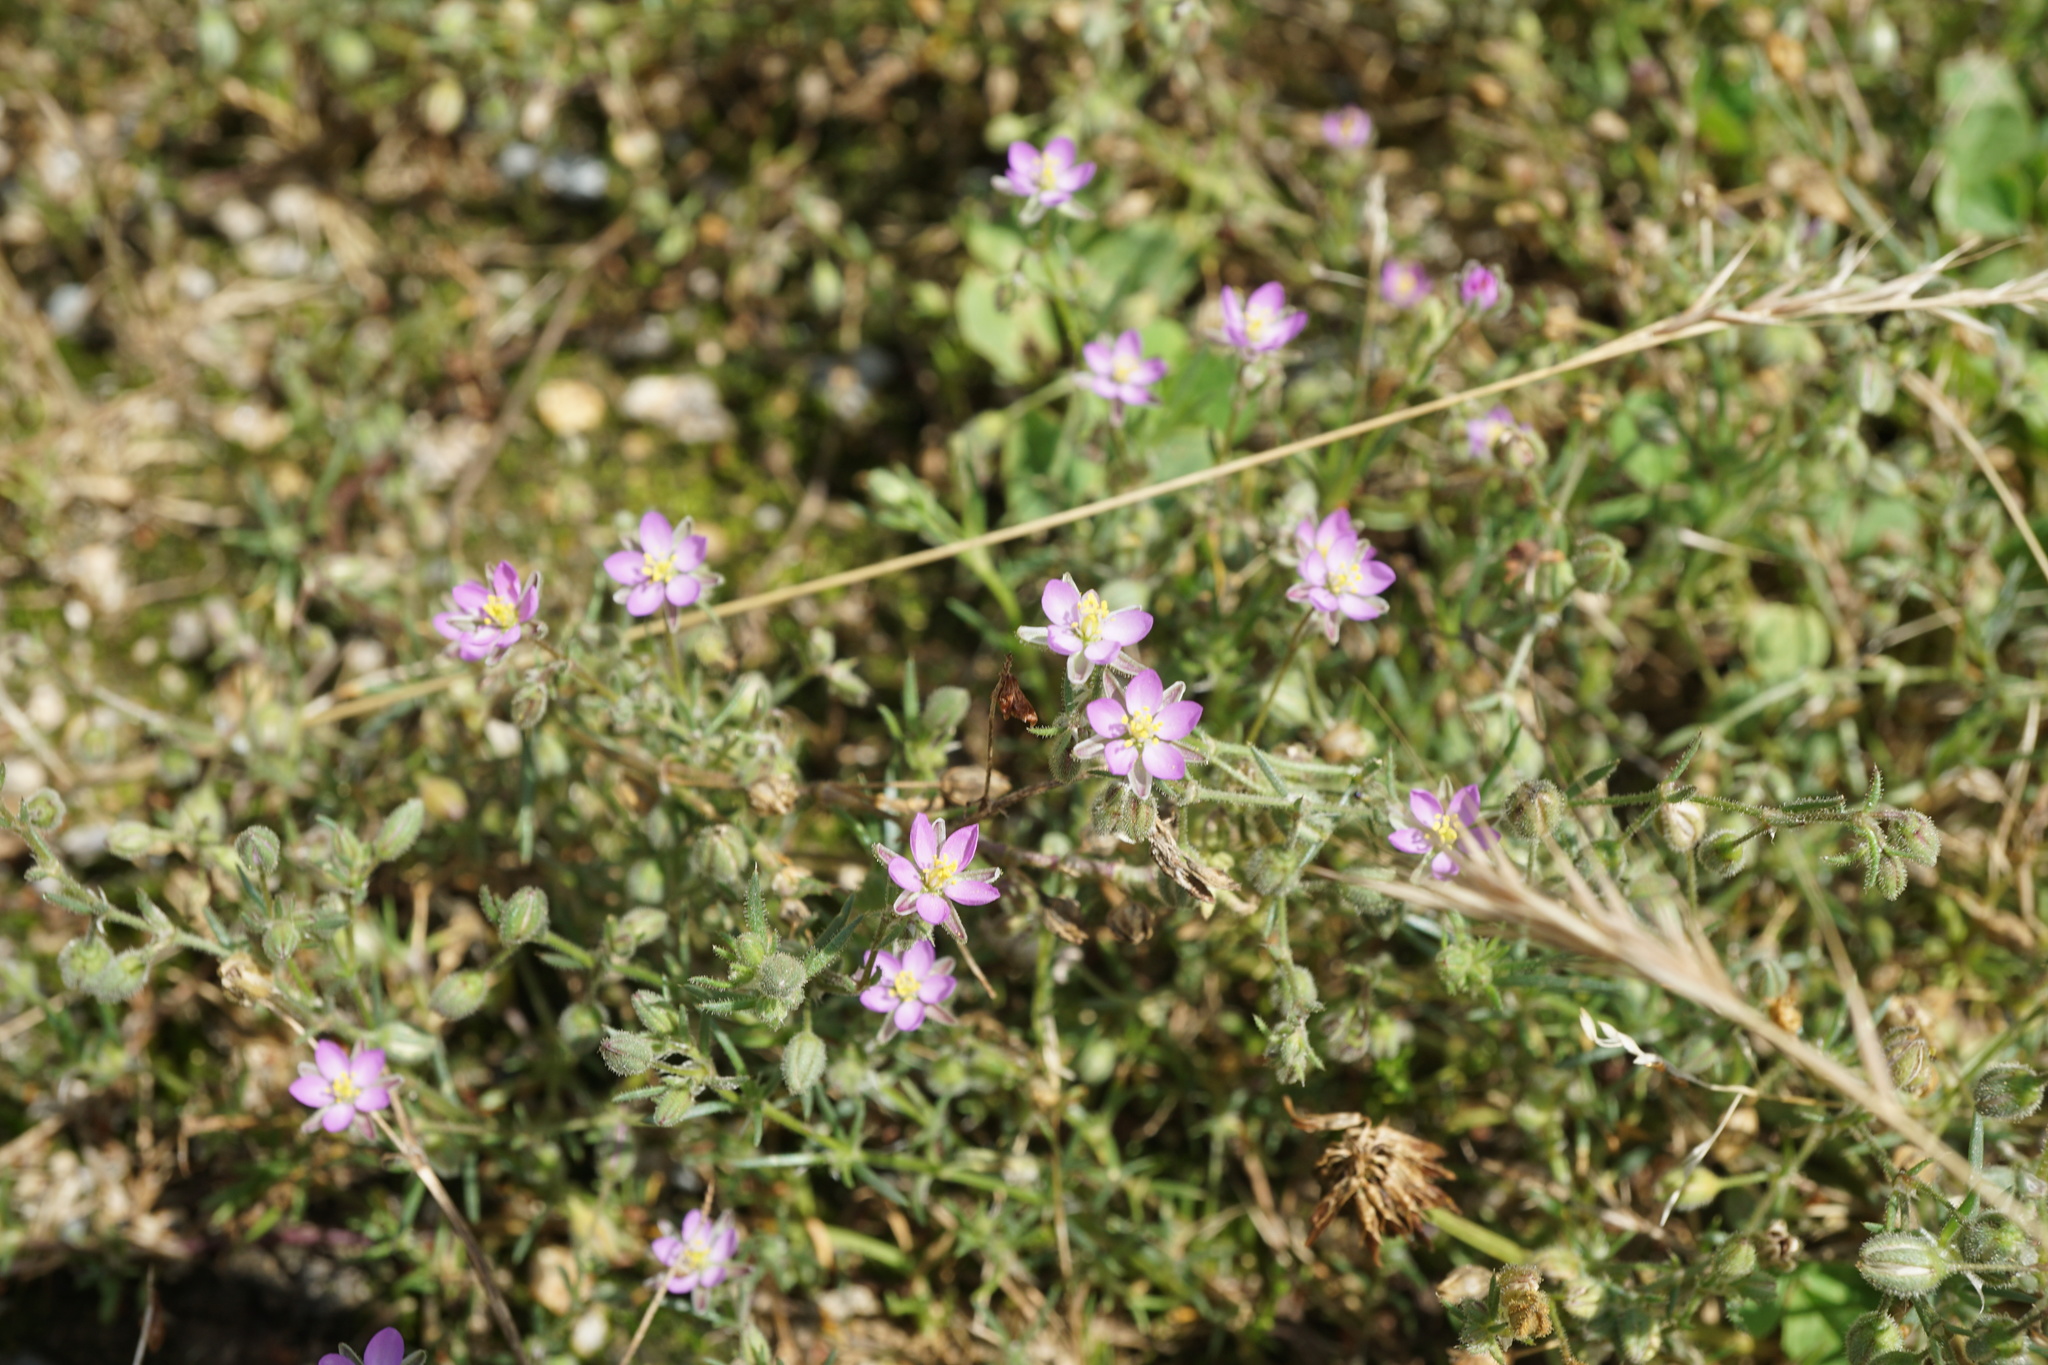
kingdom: Plantae
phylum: Tracheophyta
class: Magnoliopsida
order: Caryophyllales
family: Caryophyllaceae
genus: Spergularia
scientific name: Spergularia rubra
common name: Red sand-spurrey
